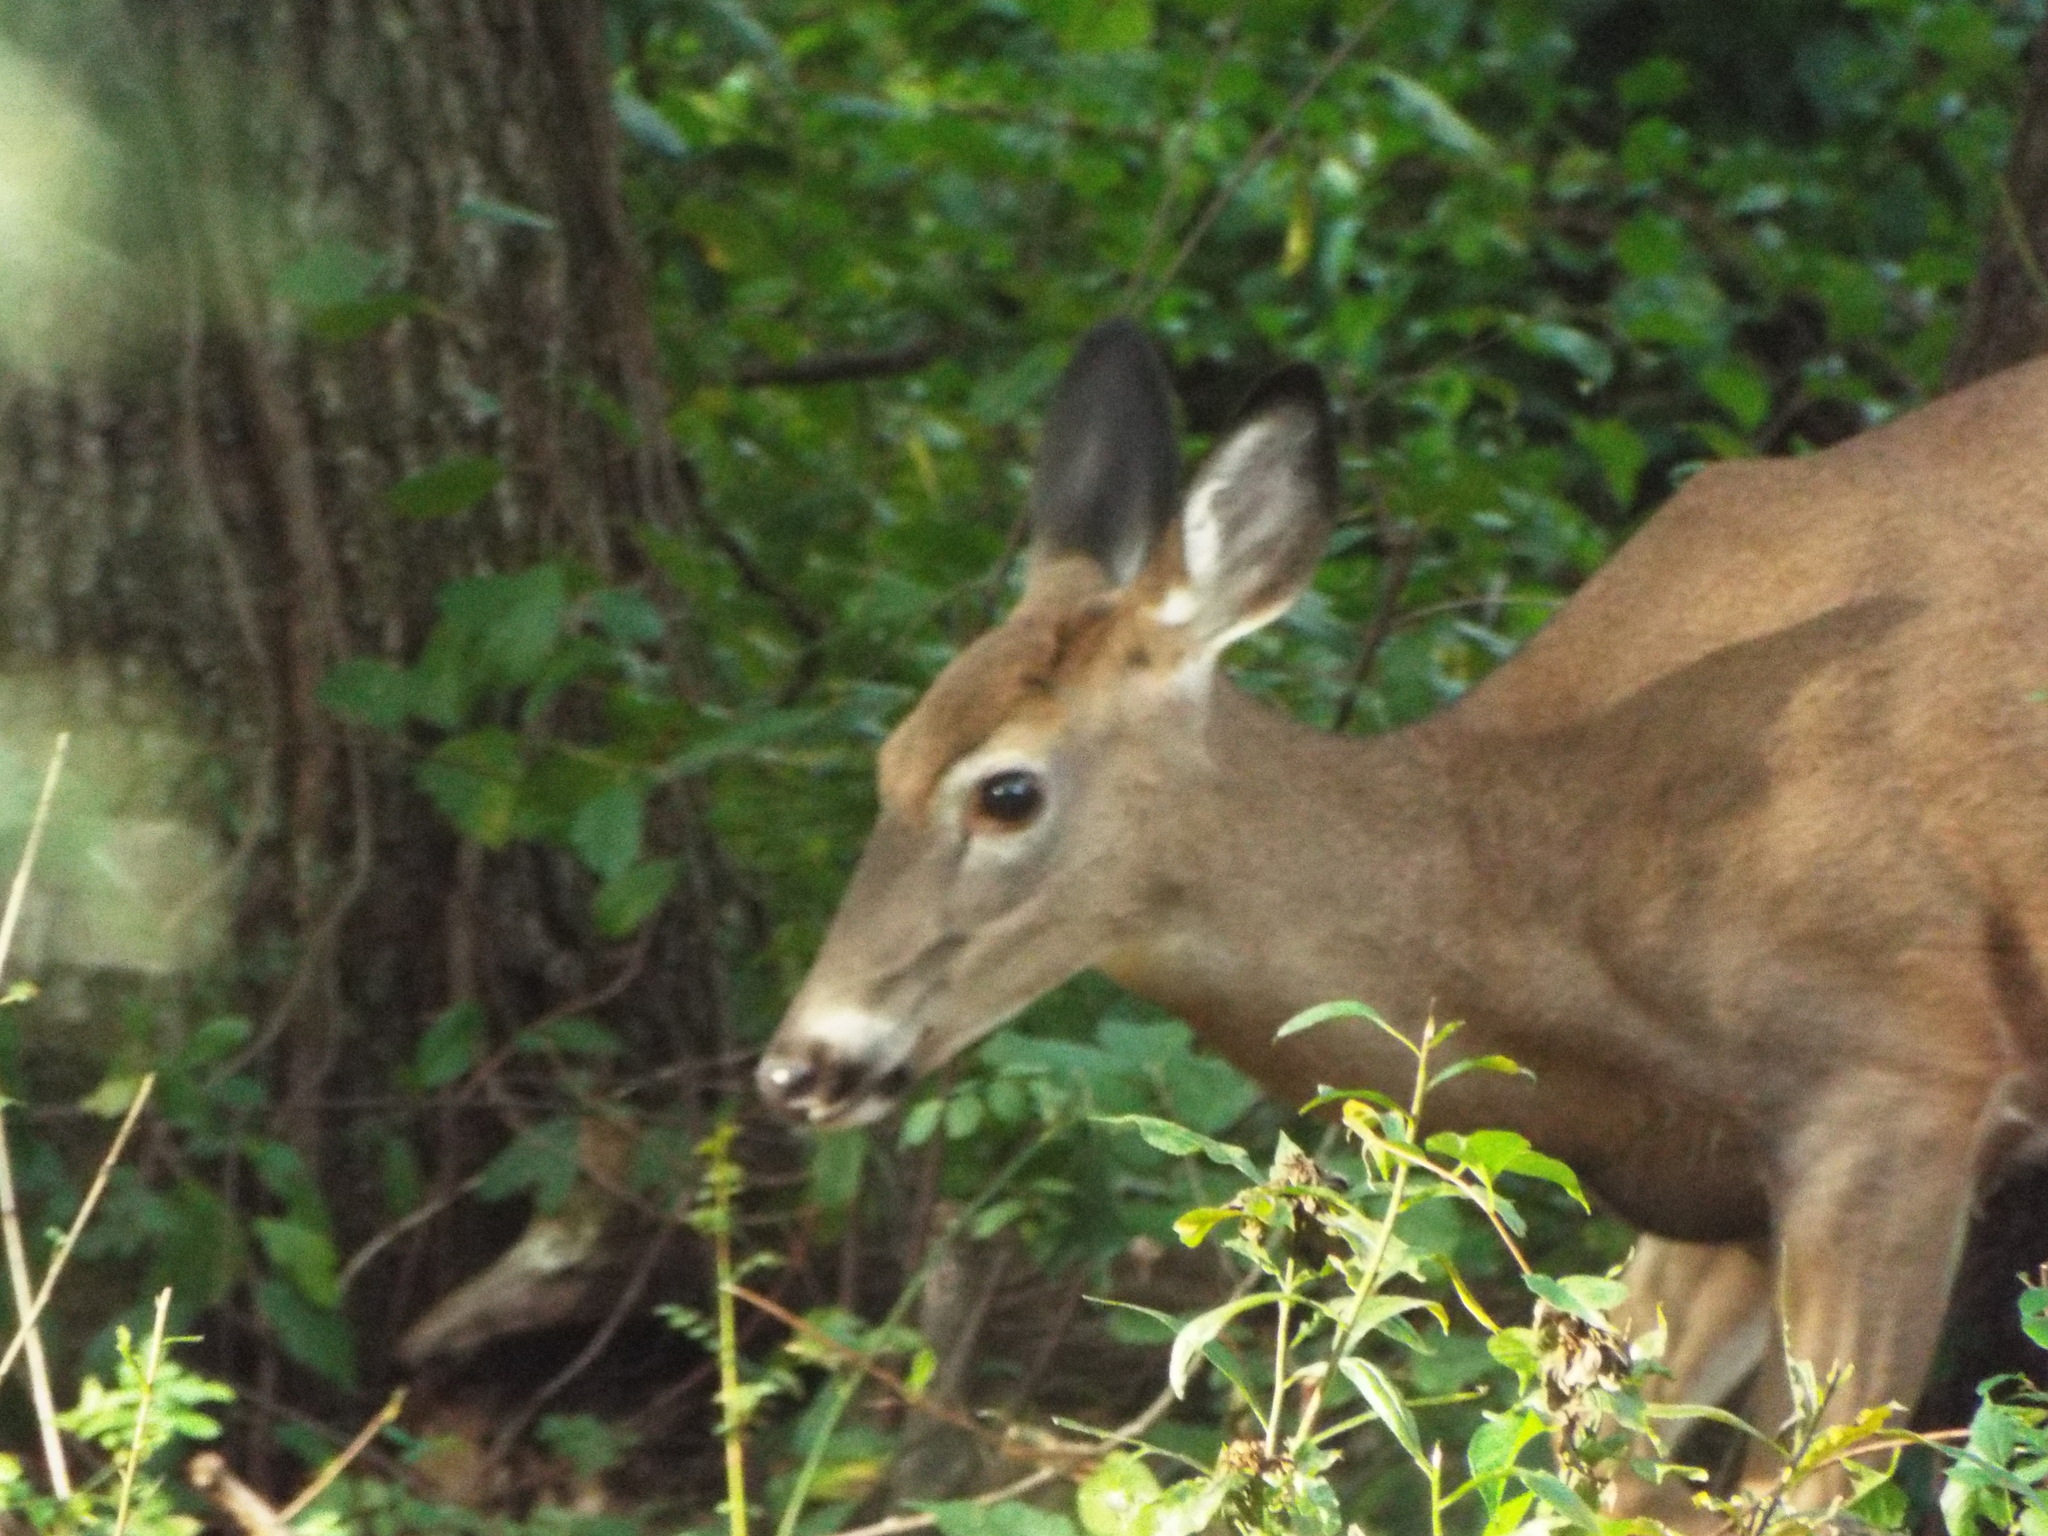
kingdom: Animalia
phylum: Chordata
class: Mammalia
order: Artiodactyla
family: Cervidae
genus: Odocoileus
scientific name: Odocoileus virginianus
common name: White-tailed deer
